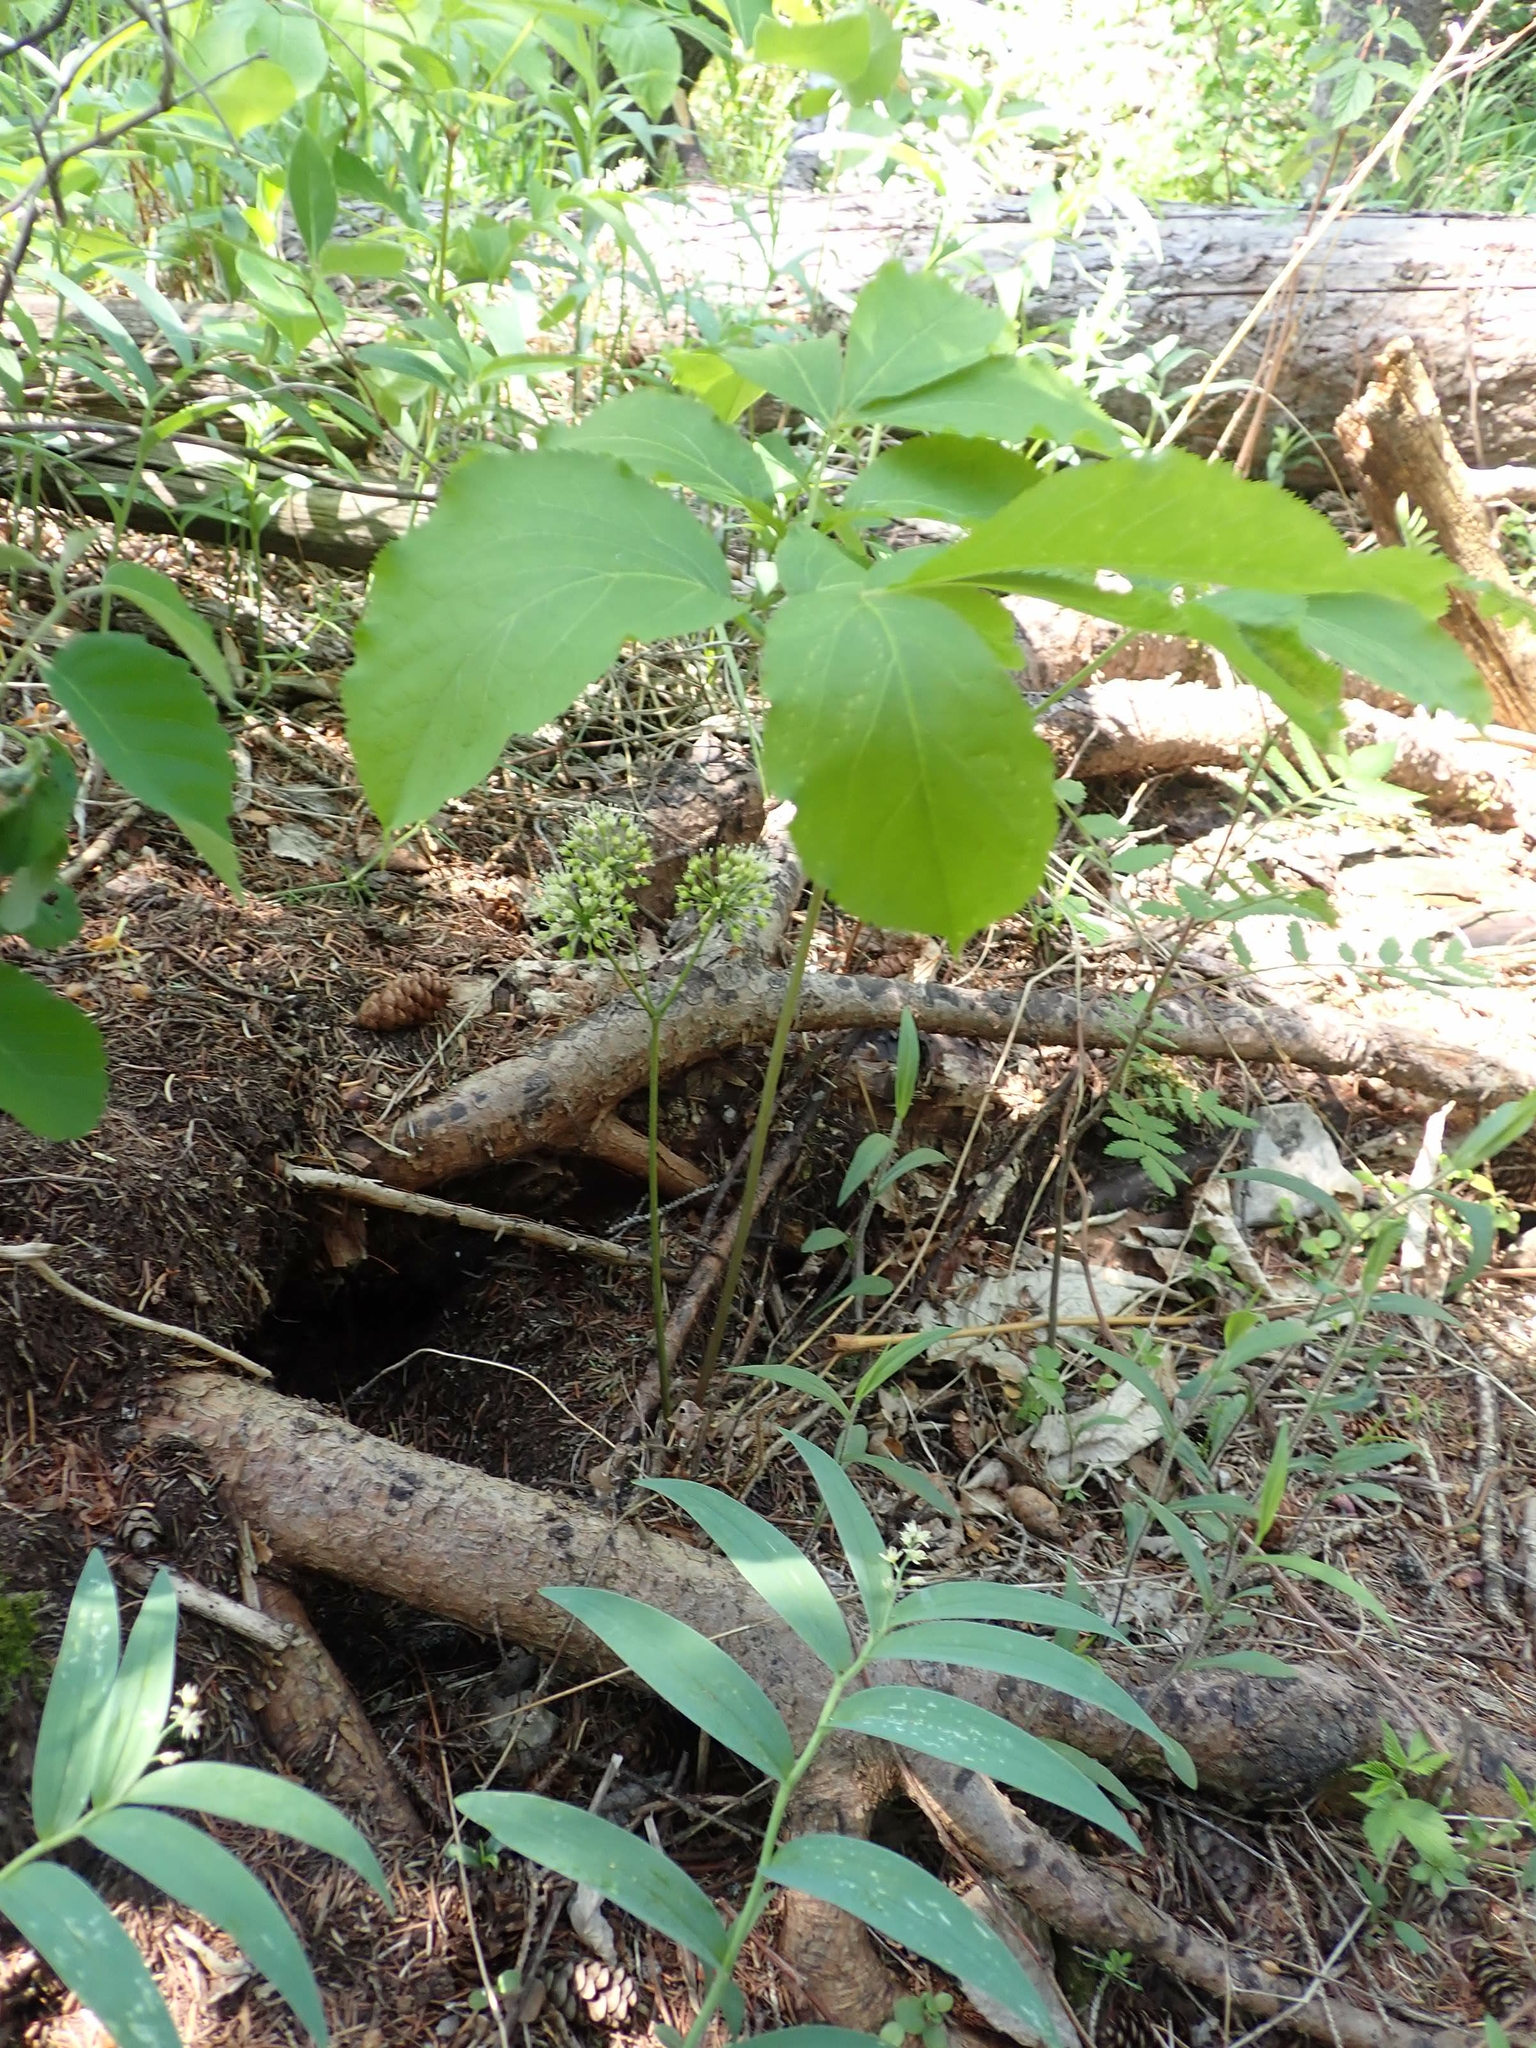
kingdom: Plantae
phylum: Tracheophyta
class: Magnoliopsida
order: Apiales
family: Araliaceae
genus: Aralia
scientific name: Aralia nudicaulis
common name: Wild sarsaparilla
